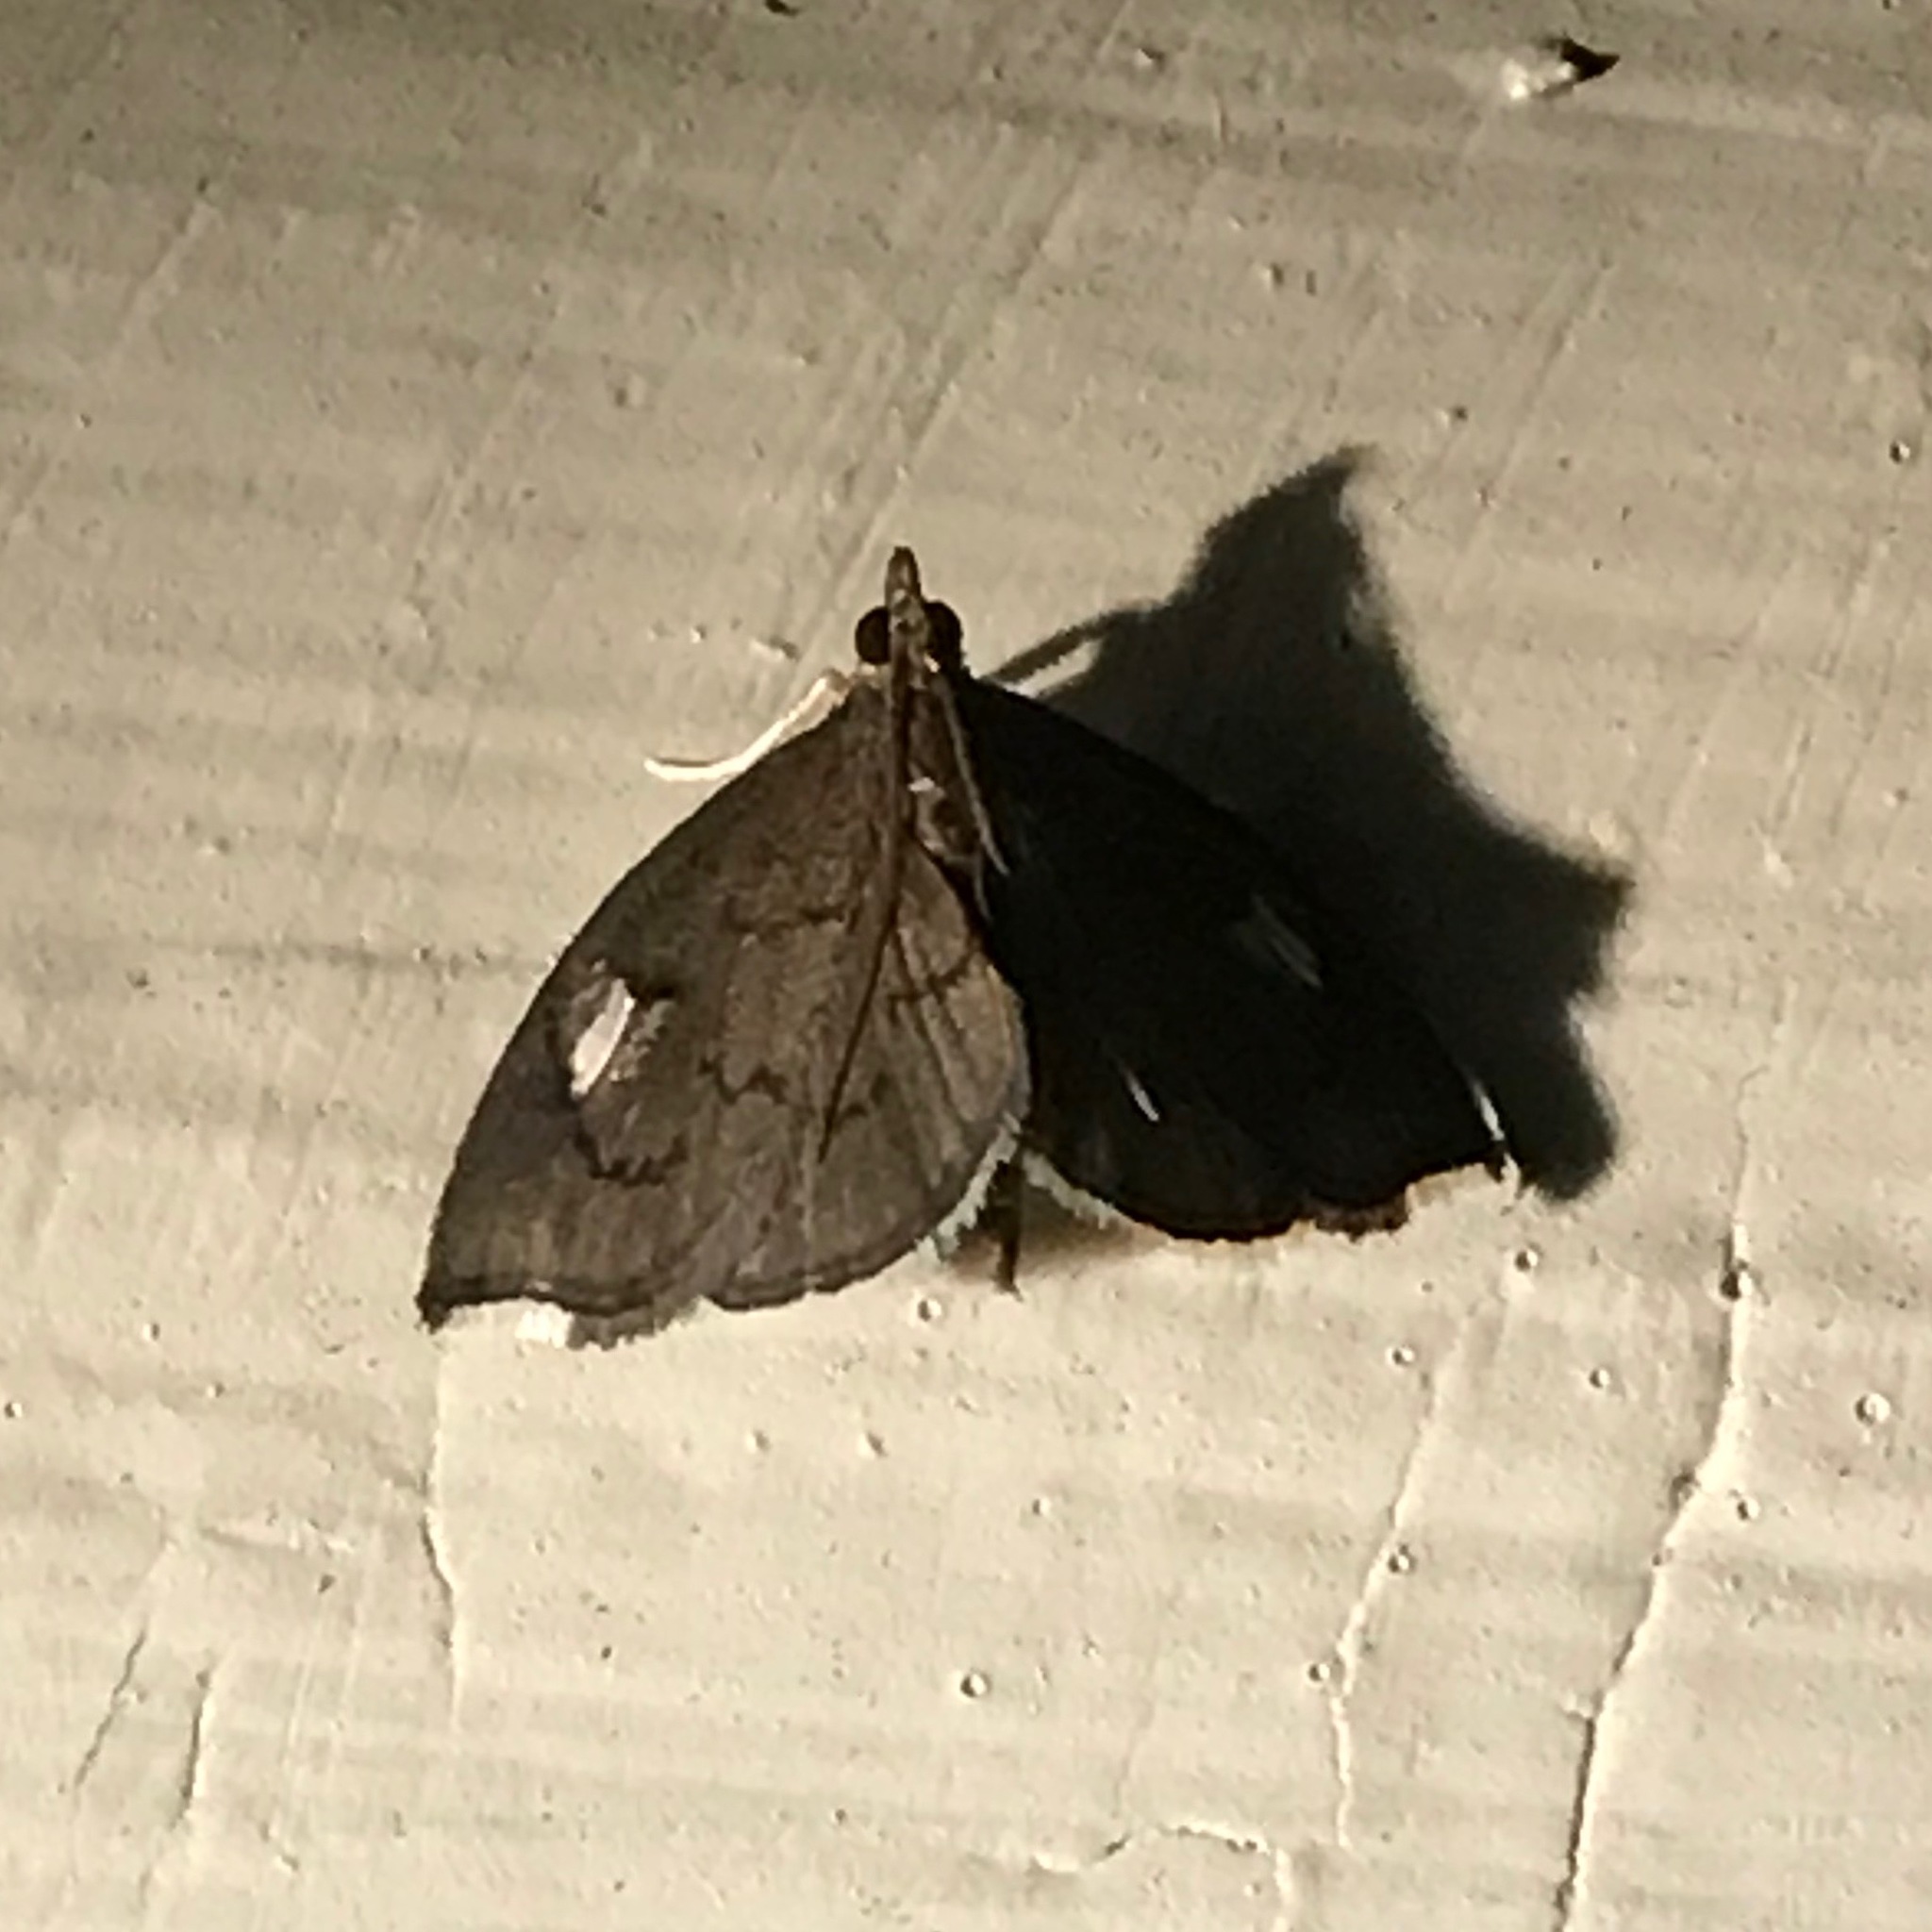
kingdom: Animalia
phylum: Arthropoda
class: Insecta
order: Lepidoptera
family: Crambidae
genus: Perispasta
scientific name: Perispasta caeculalis
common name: Titian peale's moth
